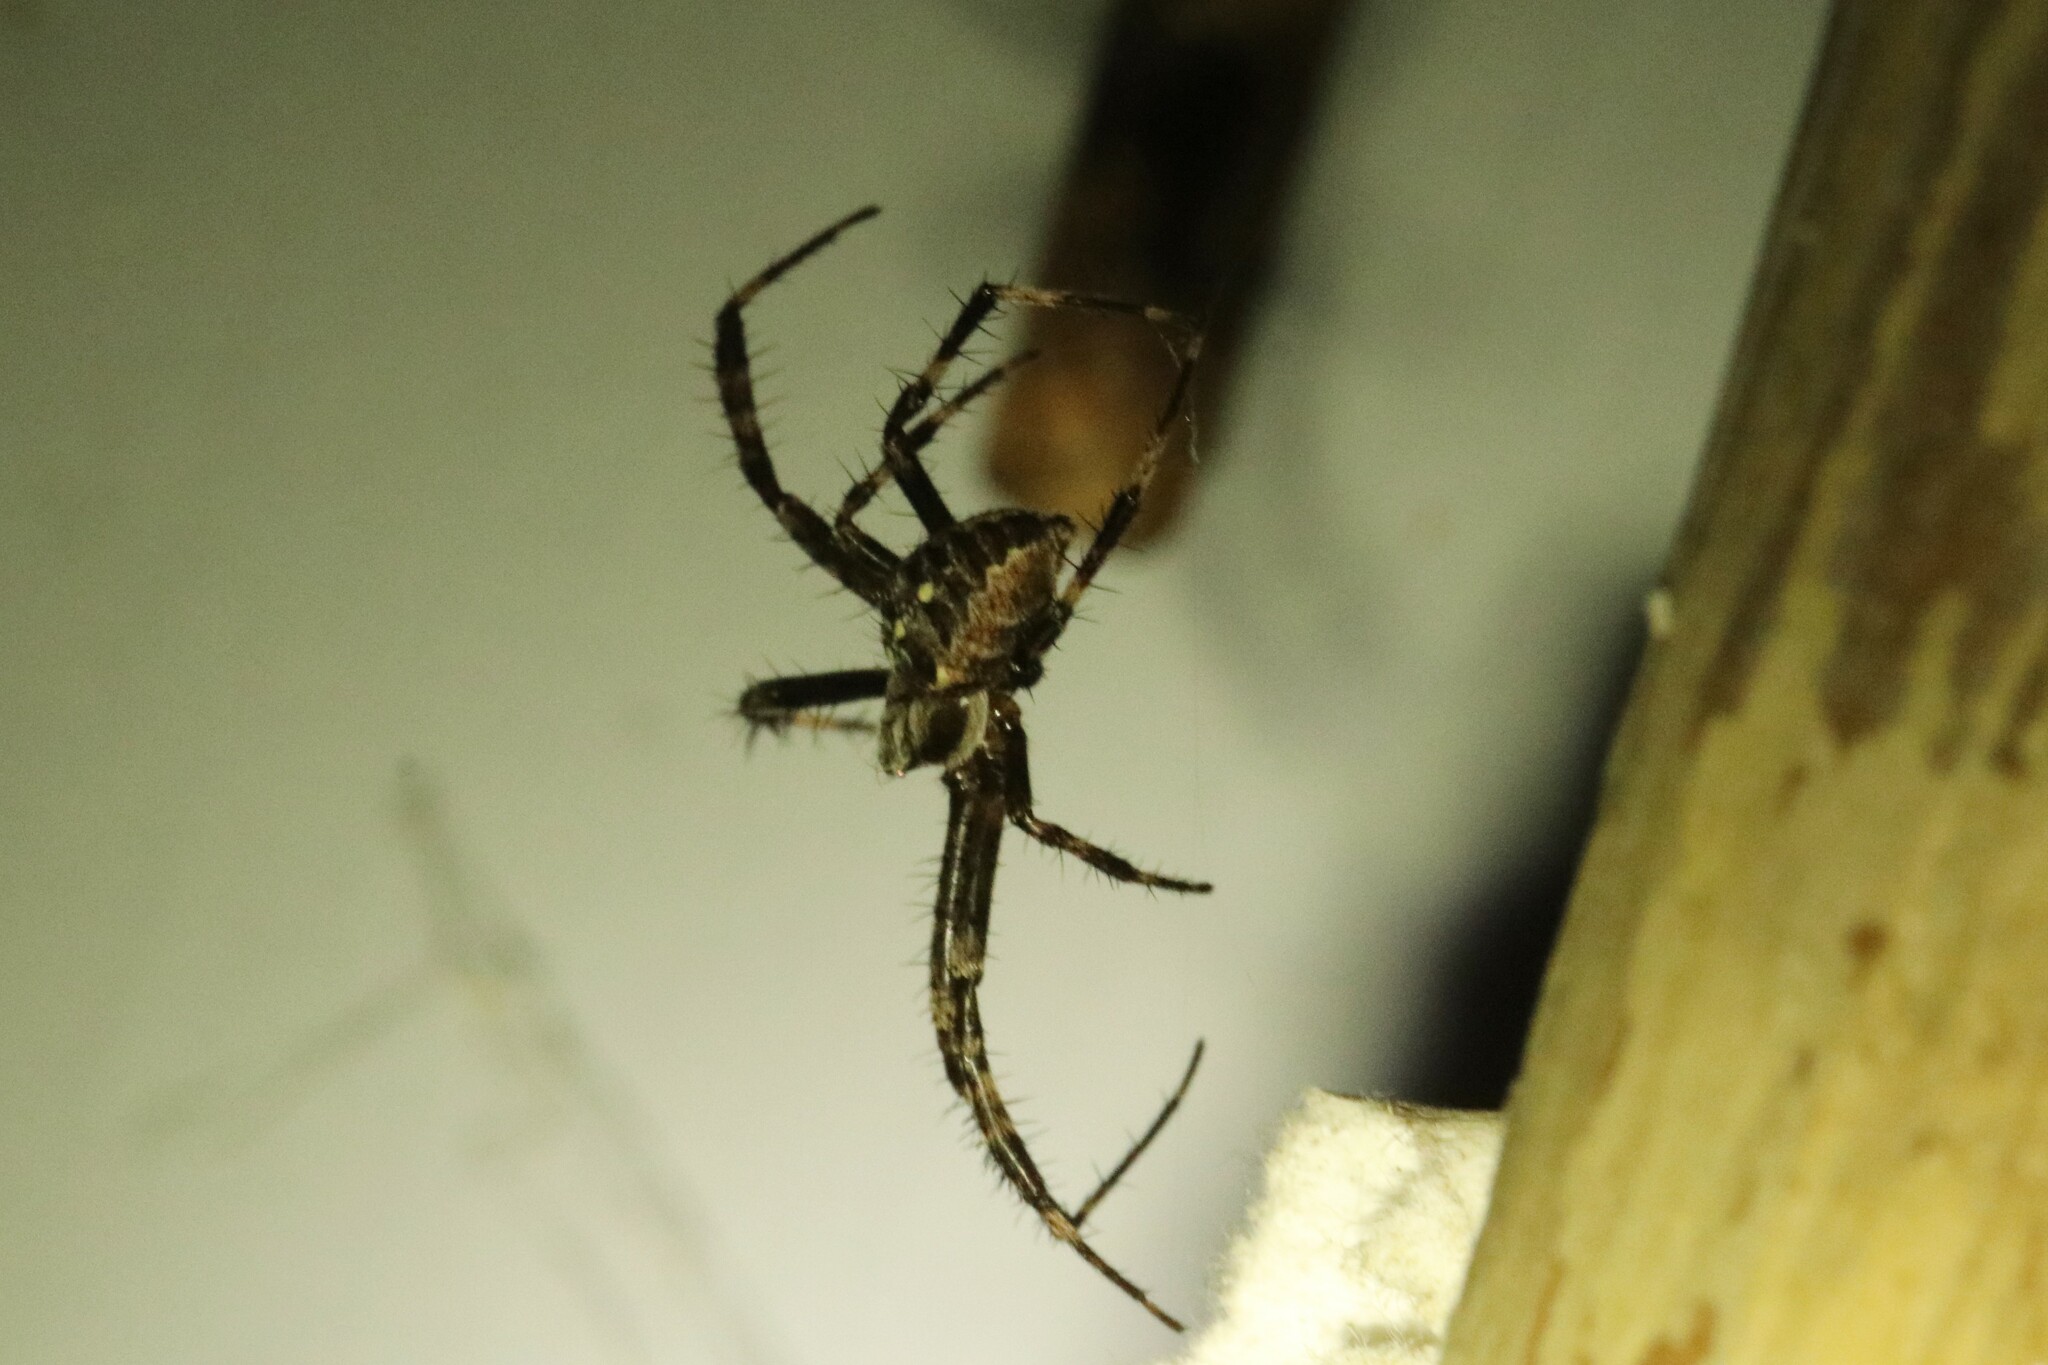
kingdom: Animalia
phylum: Arthropoda
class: Arachnida
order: Araneae
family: Araneidae
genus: Araneus
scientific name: Araneus diadematus
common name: Cross orbweaver
